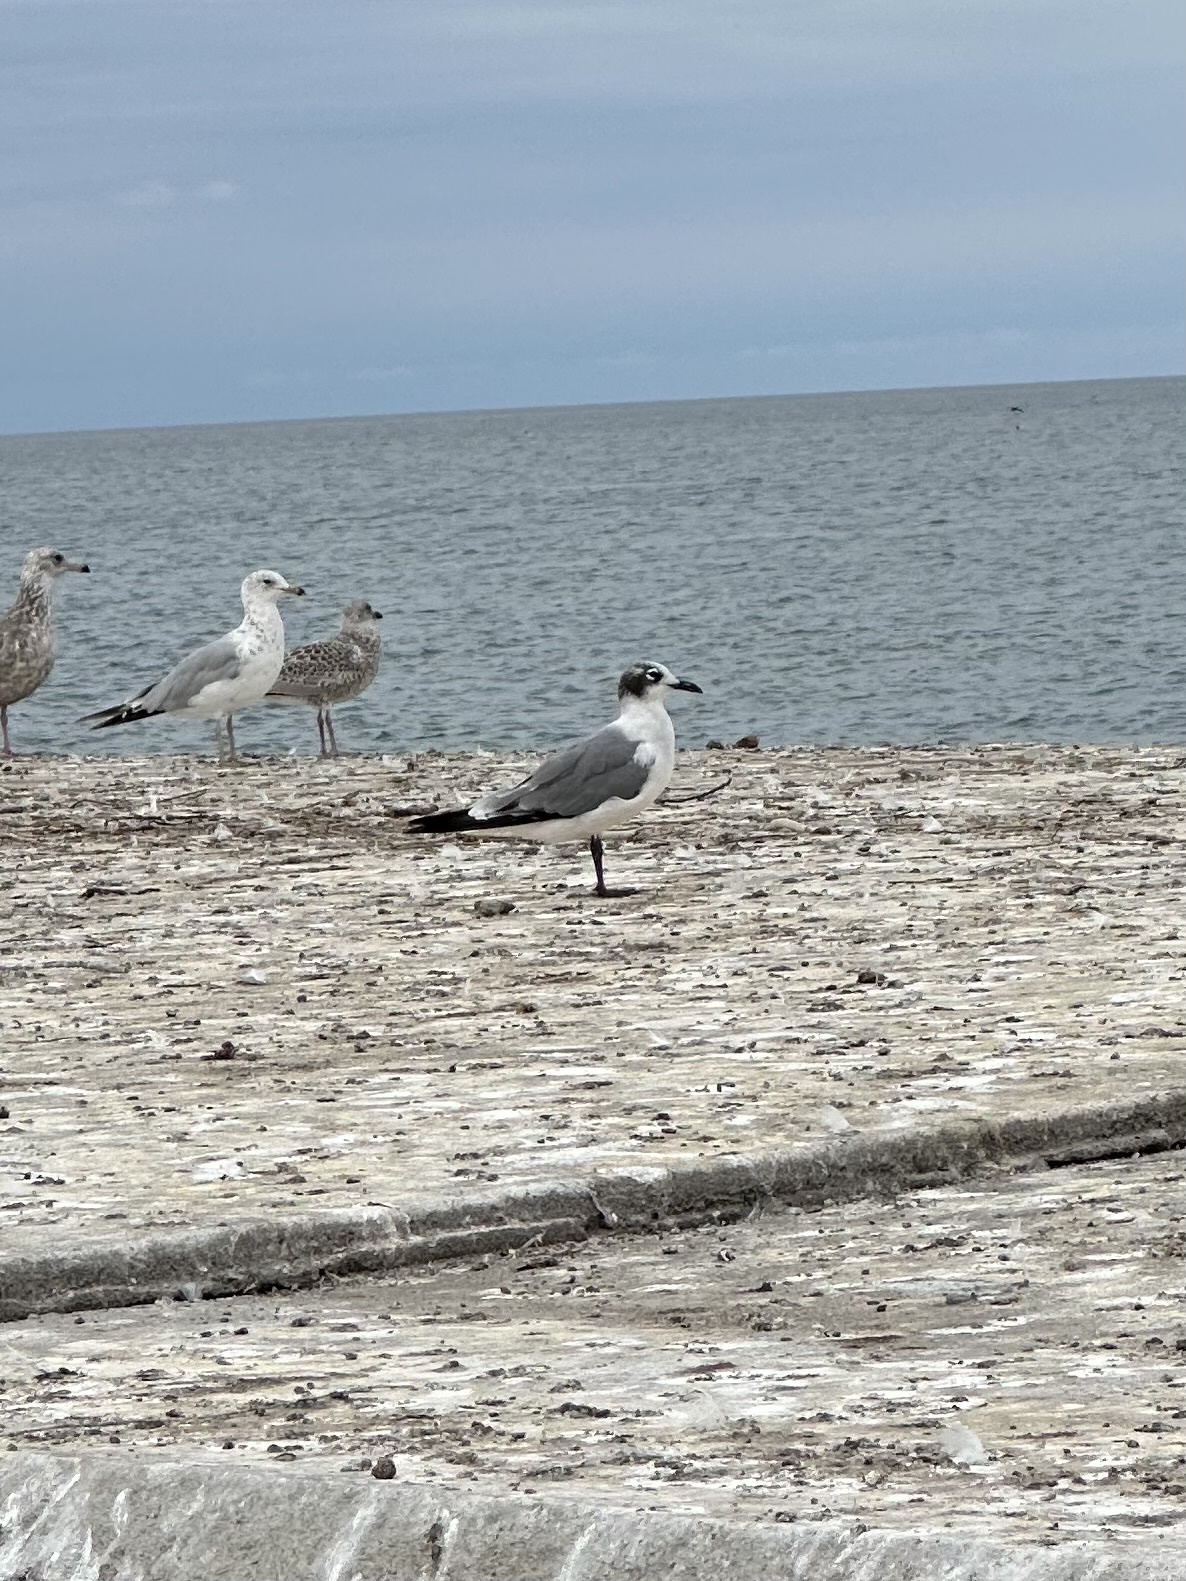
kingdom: Animalia
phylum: Chordata
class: Aves
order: Charadriiformes
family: Laridae
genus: Leucophaeus
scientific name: Leucophaeus pipixcan
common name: Franklin's gull
